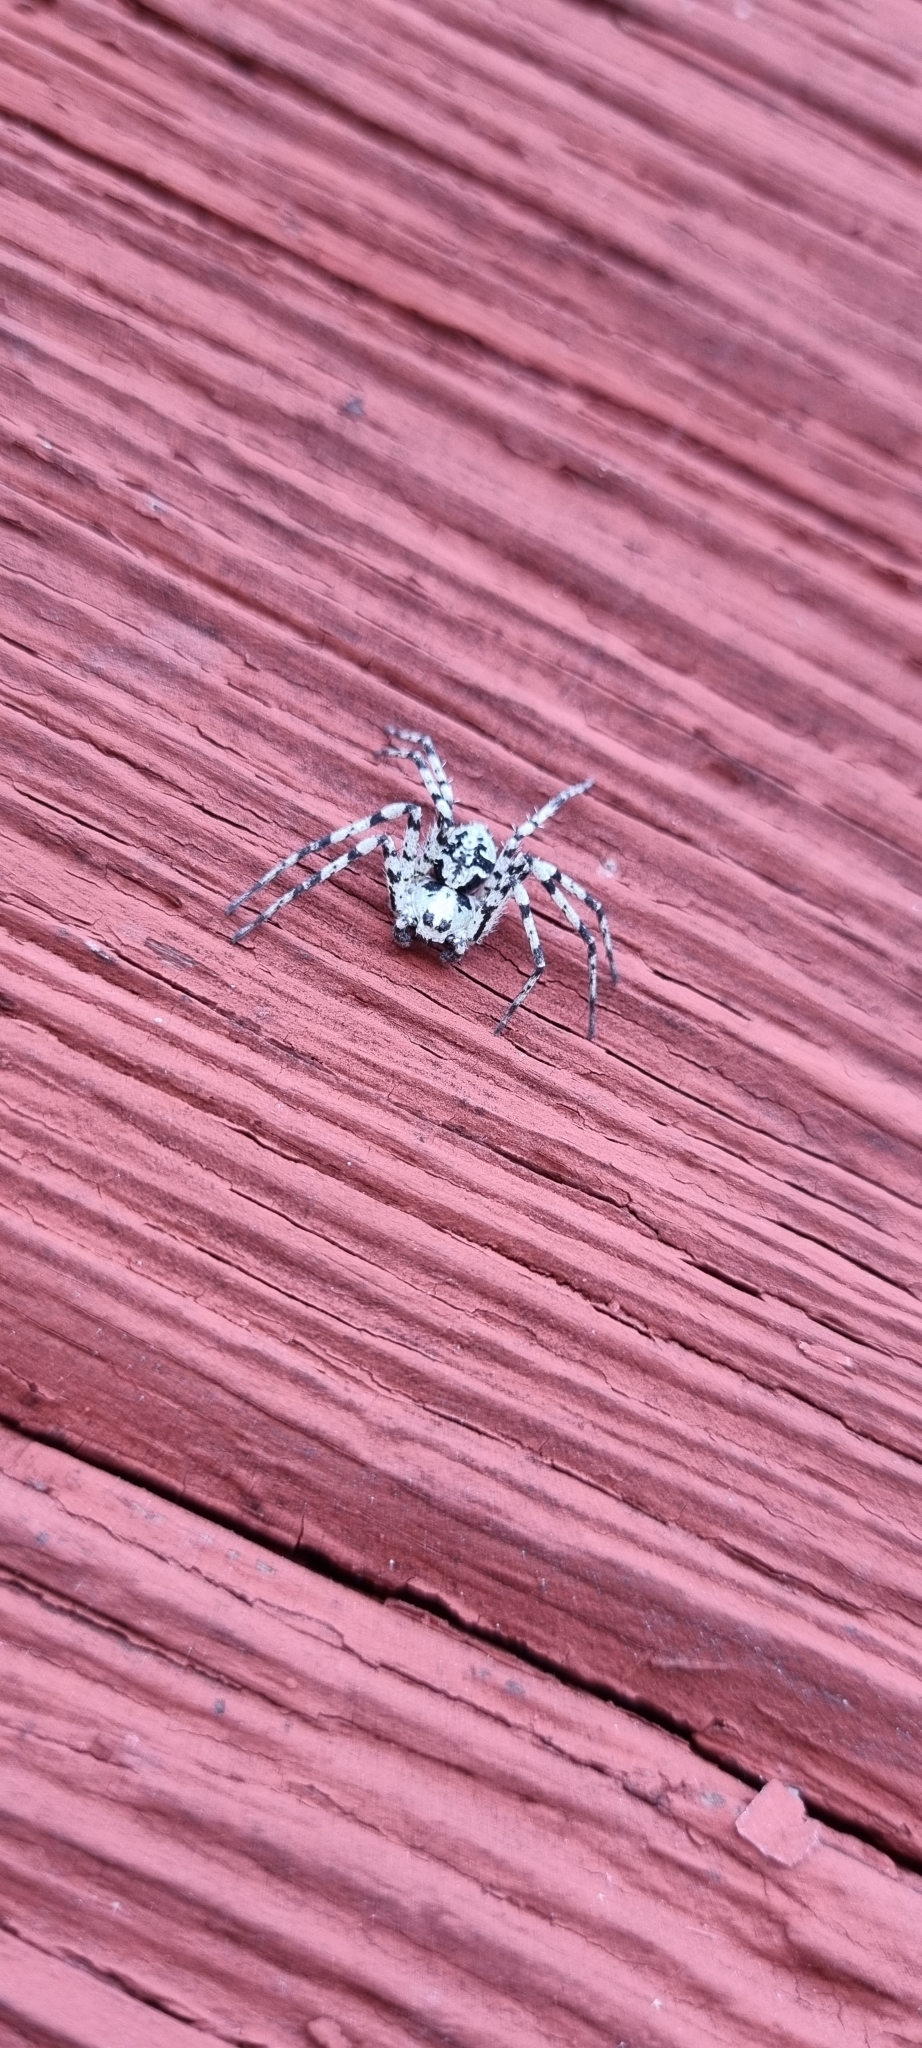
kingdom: Animalia
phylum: Arthropoda
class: Arachnida
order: Araneae
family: Philodromidae
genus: Philodromus
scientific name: Philodromus margaritatus
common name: Lichen running-spider
